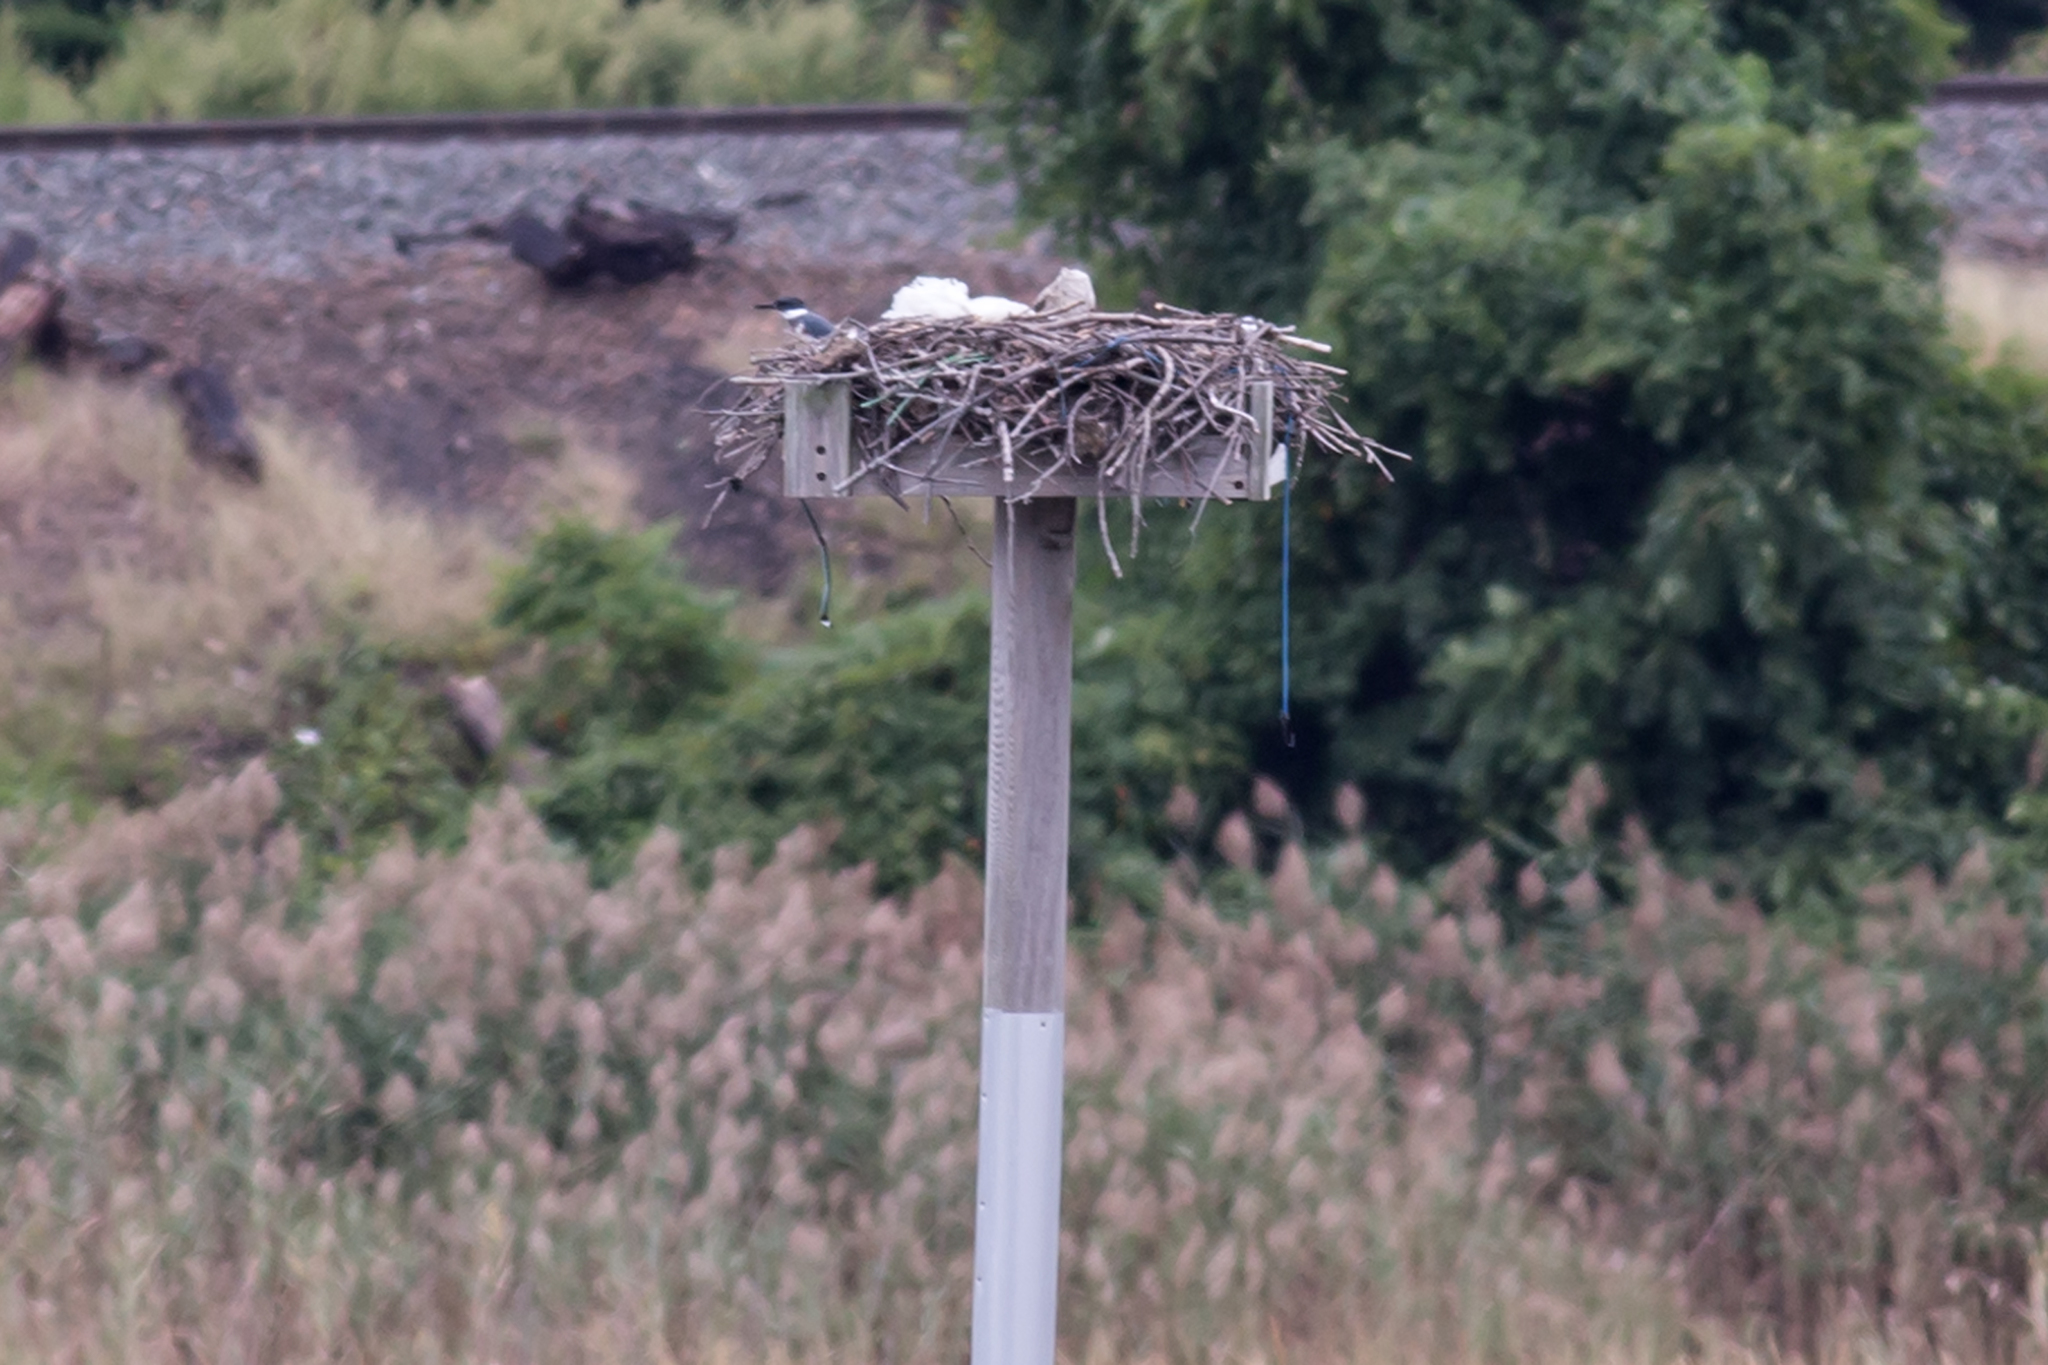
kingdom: Animalia
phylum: Chordata
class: Aves
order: Coraciiformes
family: Alcedinidae
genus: Megaceryle
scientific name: Megaceryle alcyon
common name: Belted kingfisher
